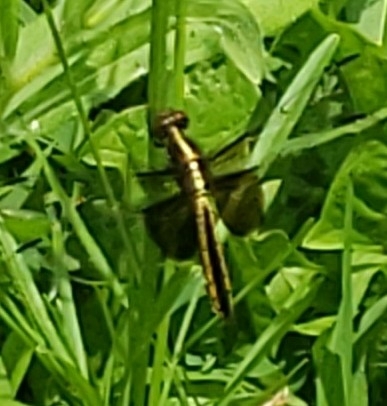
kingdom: Animalia
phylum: Arthropoda
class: Insecta
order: Odonata
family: Libellulidae
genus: Libellula
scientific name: Libellula luctuosa
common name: Widow skimmer
